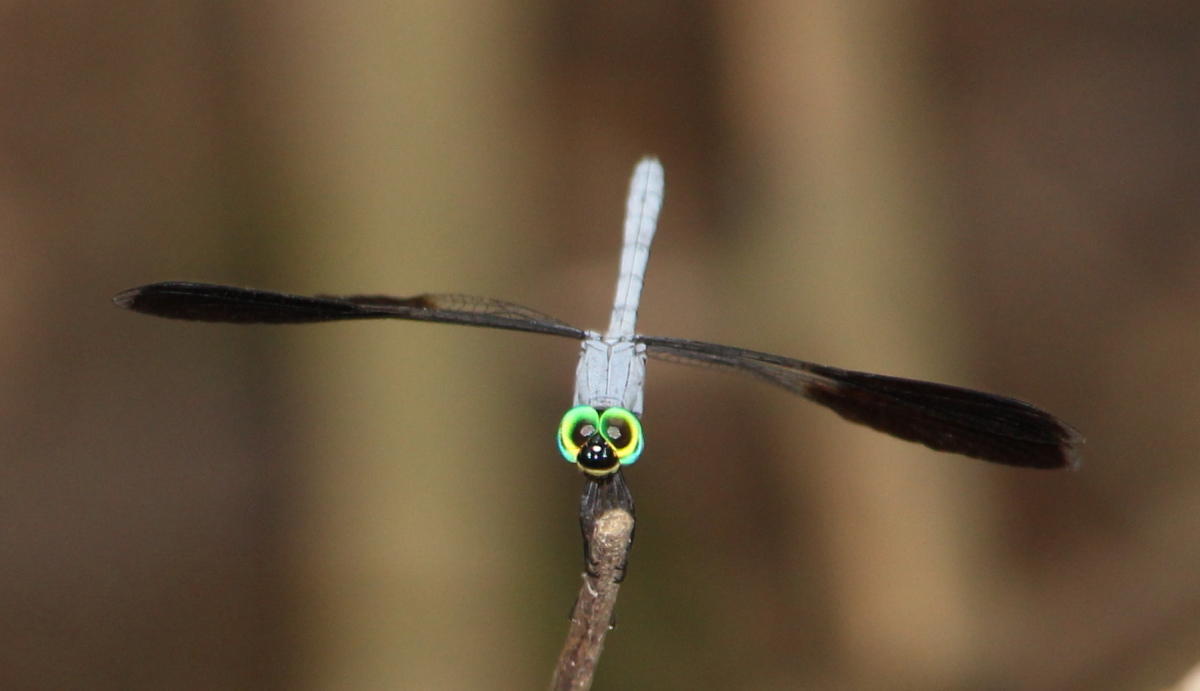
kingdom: Animalia
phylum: Arthropoda
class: Insecta
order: Odonata
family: Libellulidae
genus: Tetrathemis
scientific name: Tetrathemis polleni
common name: Black-splashed elf
